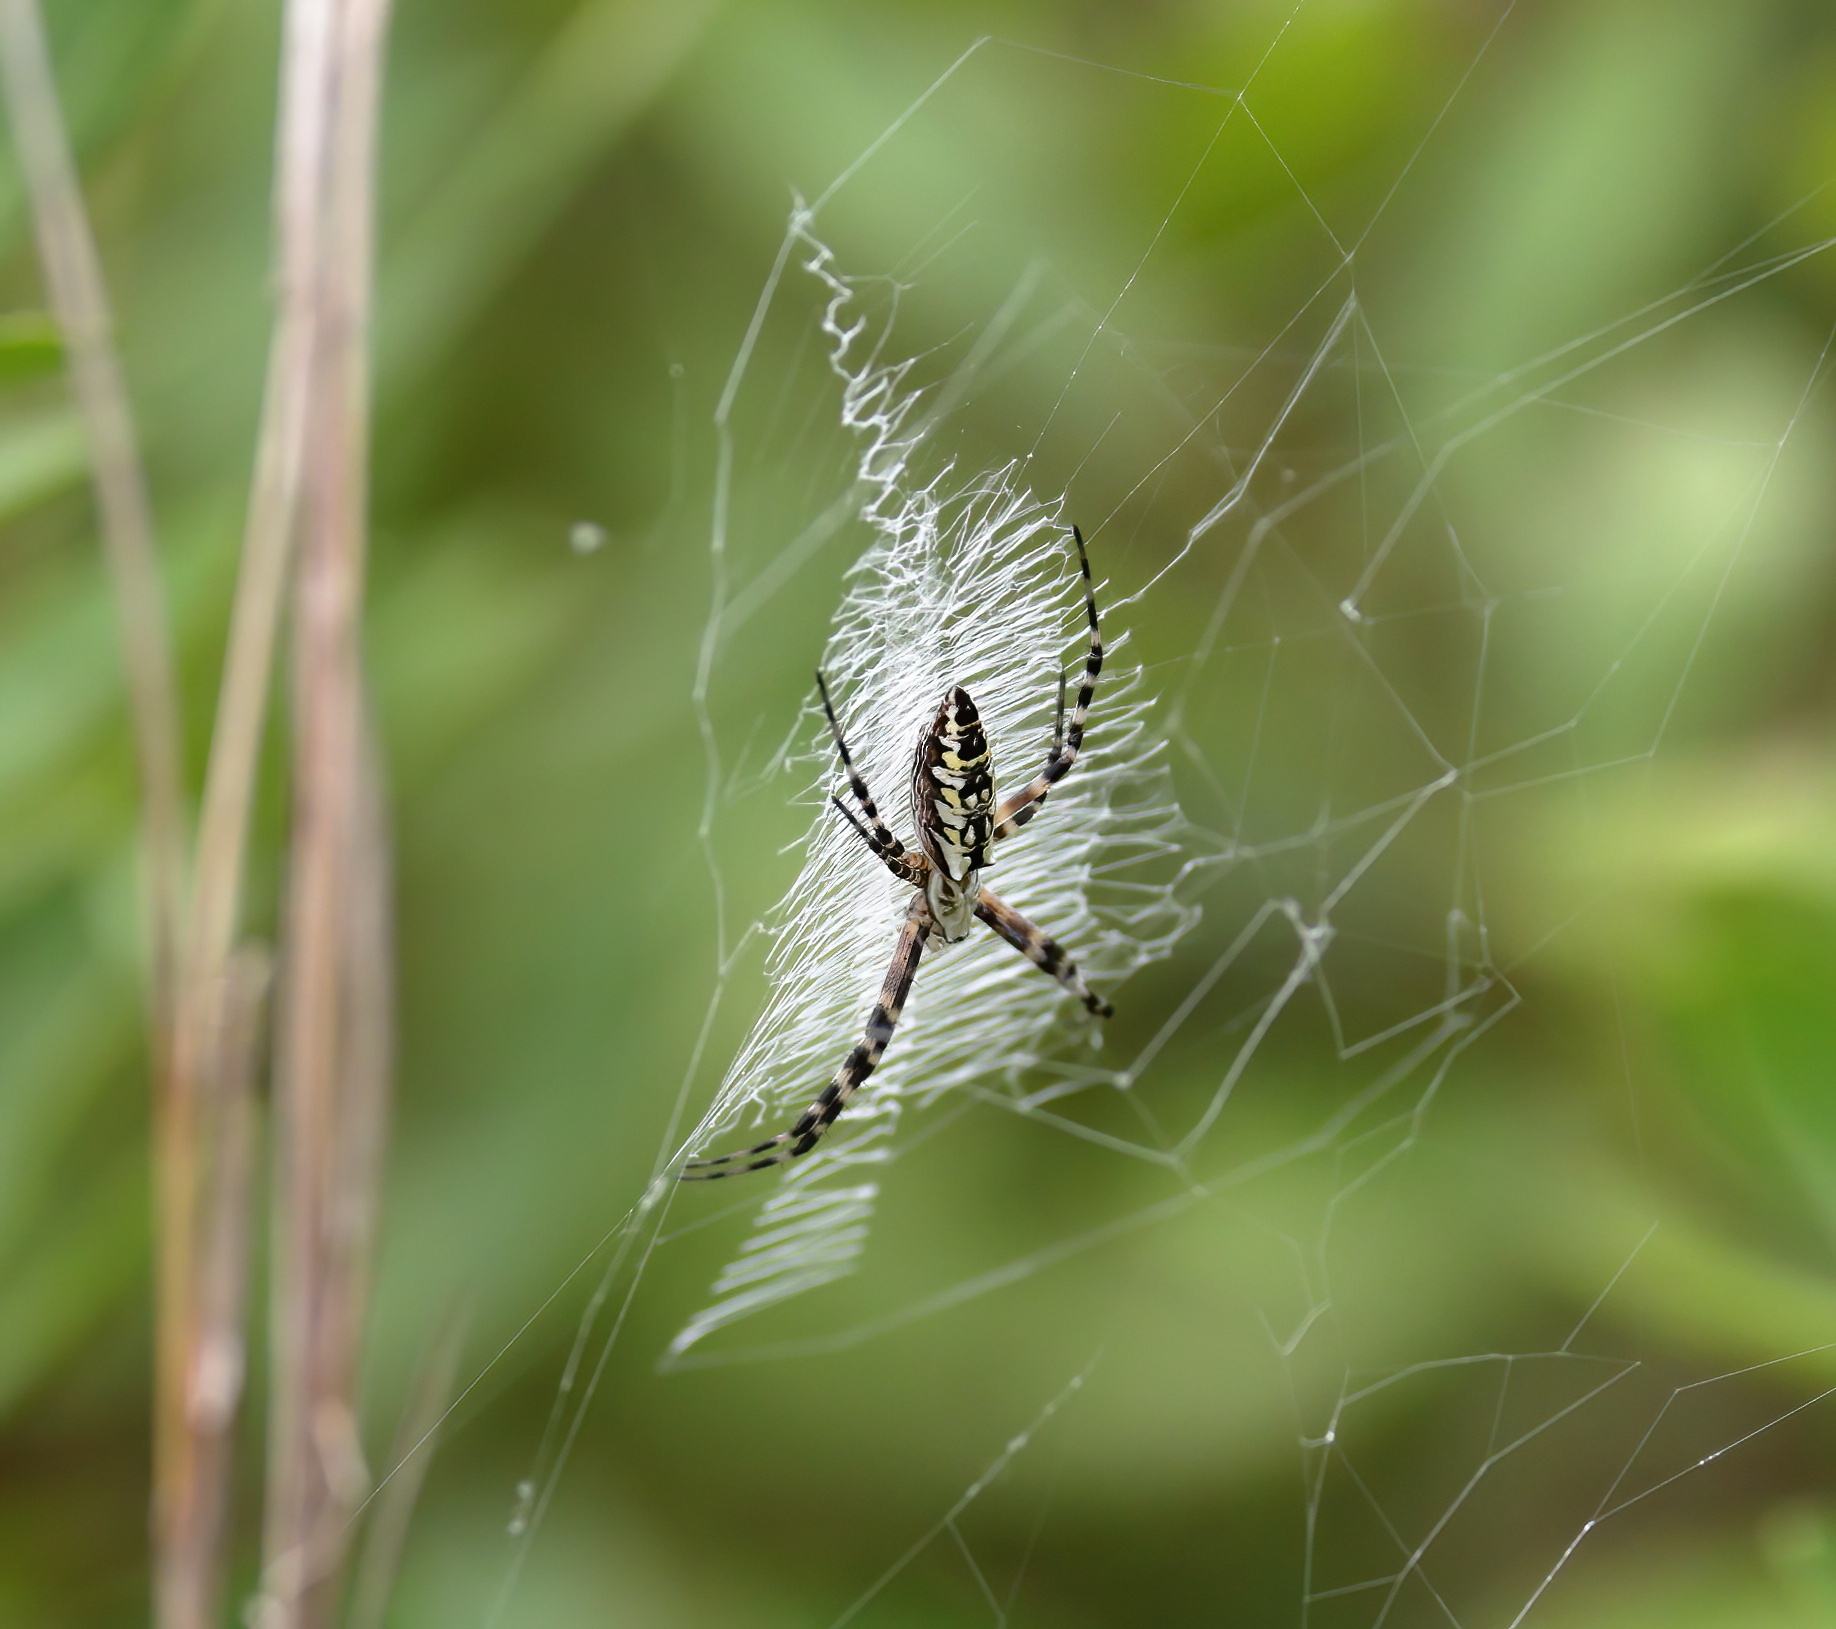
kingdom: Animalia
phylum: Arthropoda
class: Arachnida
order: Araneae
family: Araneidae
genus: Argiope
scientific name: Argiope aurantia
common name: Orb weavers
